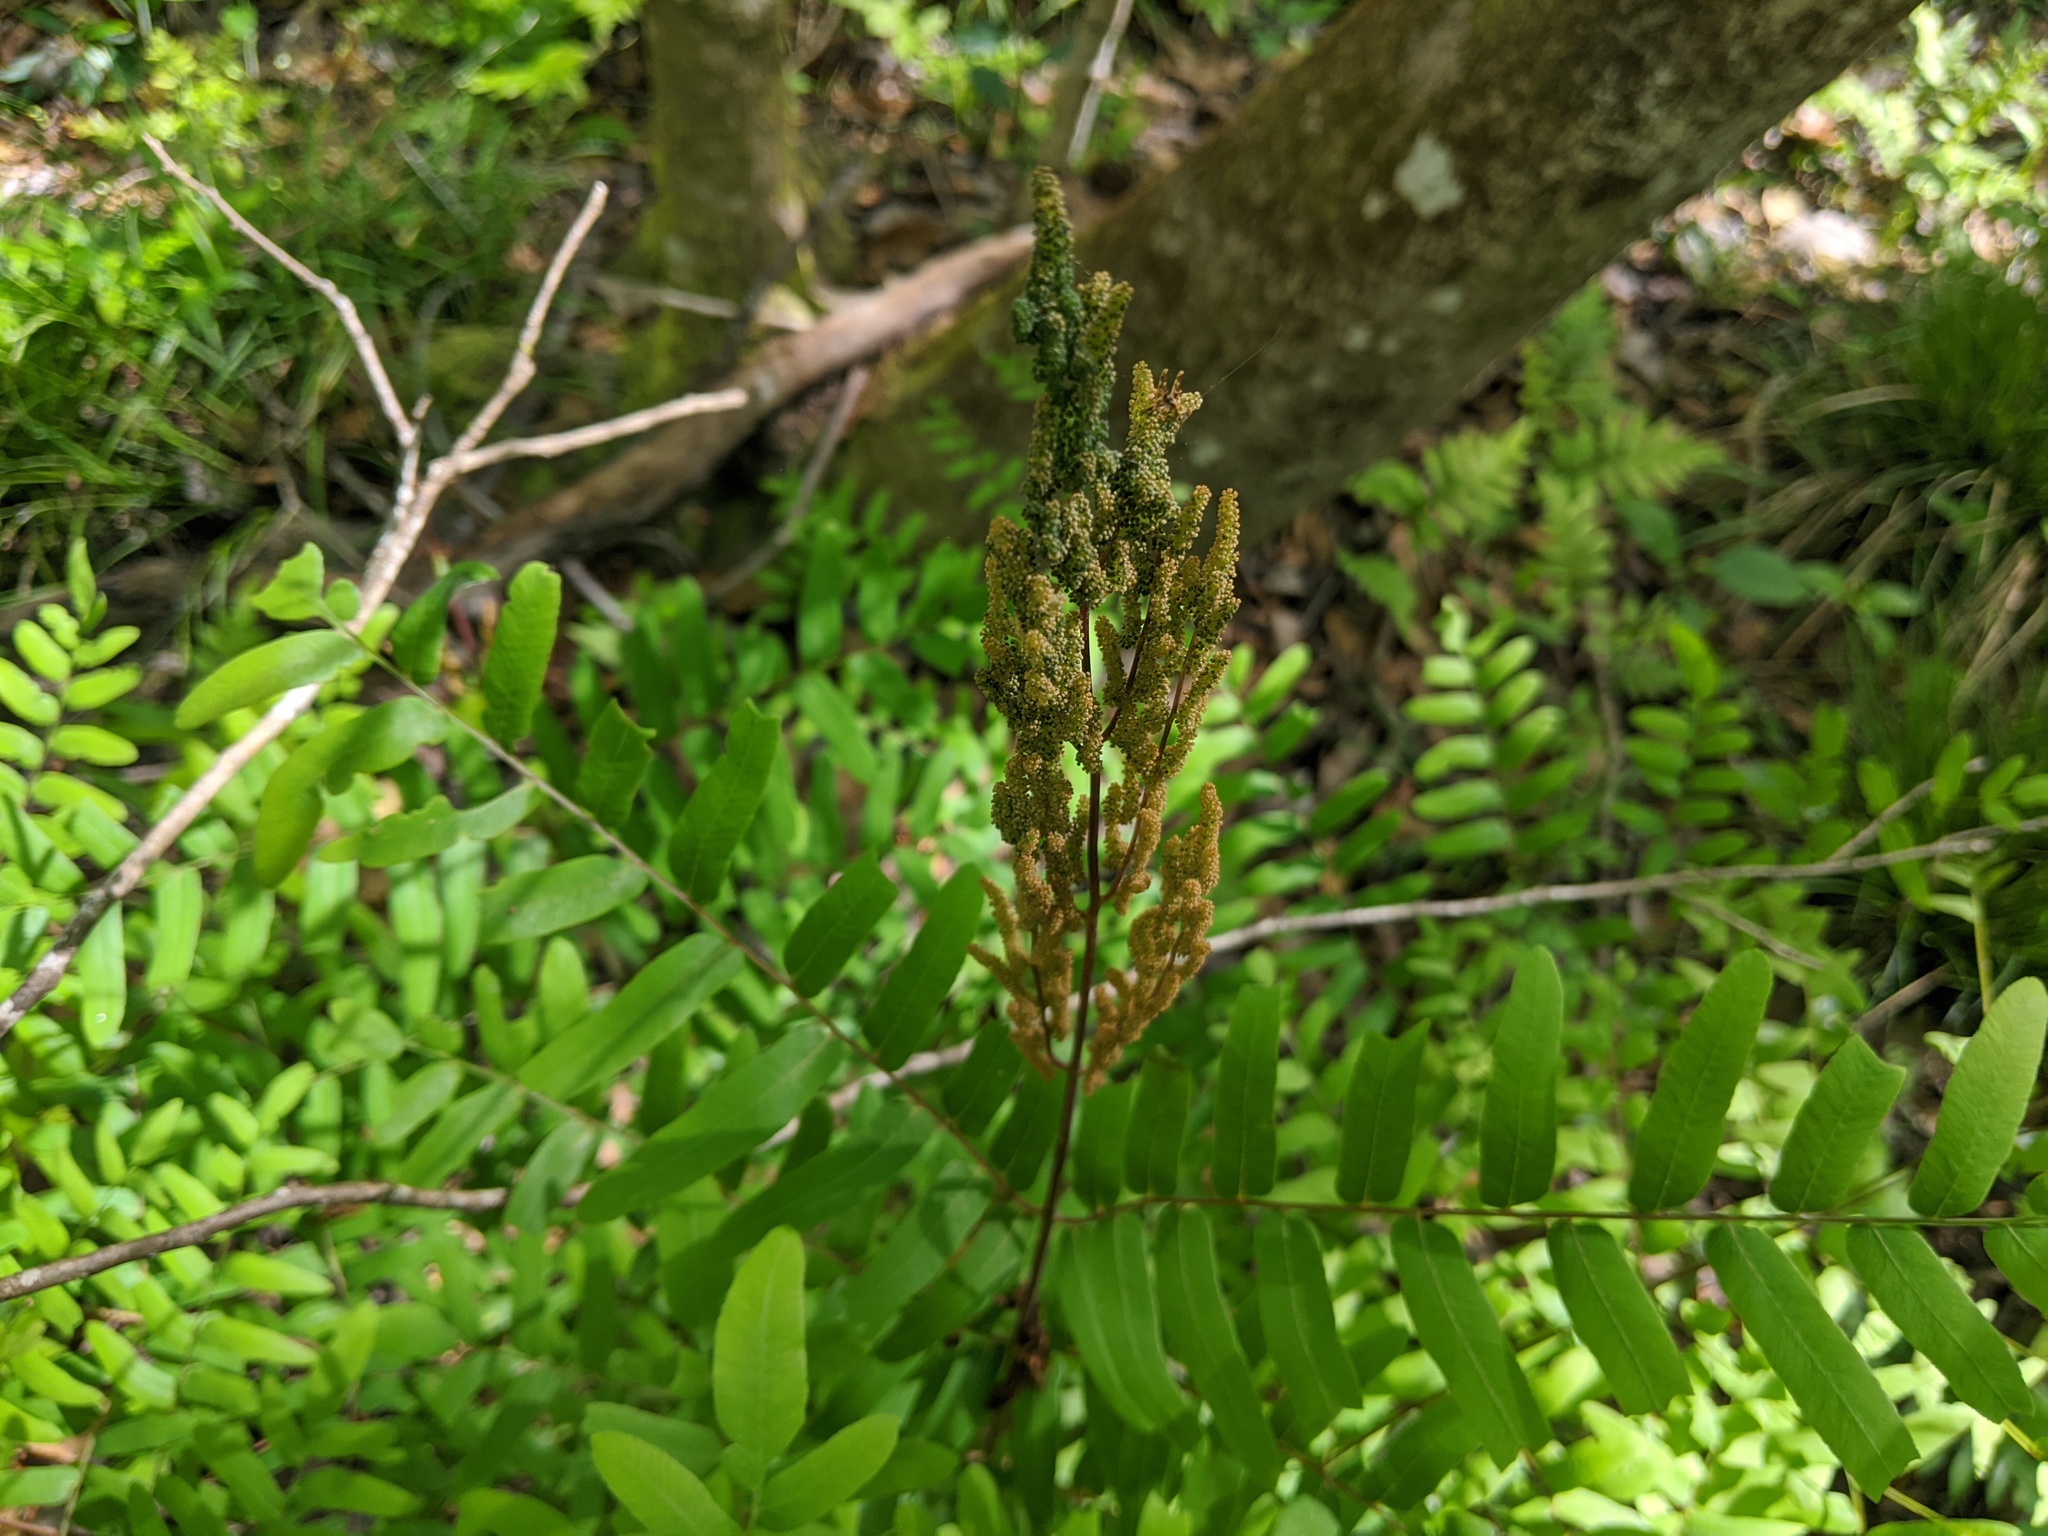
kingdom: Plantae
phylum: Tracheophyta
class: Polypodiopsida
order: Osmundales
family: Osmundaceae
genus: Osmunda
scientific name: Osmunda spectabilis
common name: American royal fern
